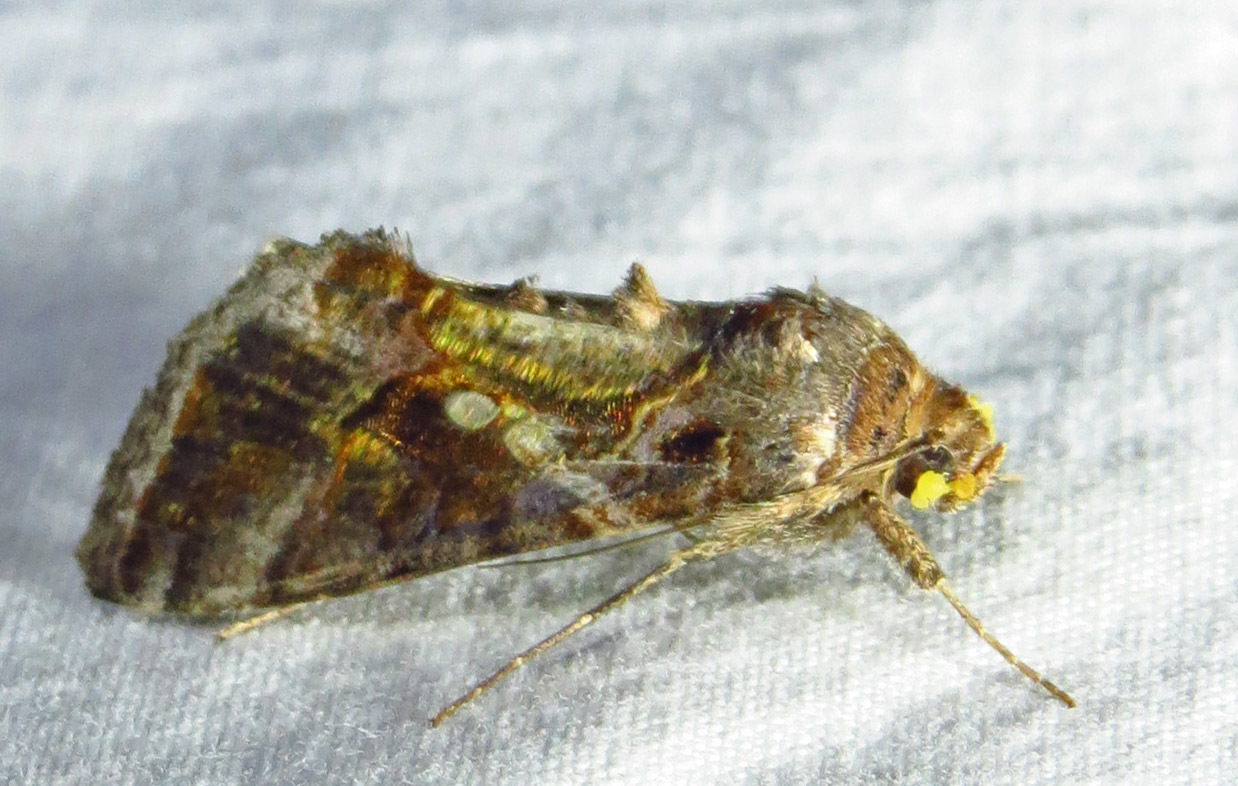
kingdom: Animalia
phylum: Arthropoda
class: Insecta
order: Lepidoptera
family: Noctuidae
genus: Chrysodeixis
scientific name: Chrysodeixis includens
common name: Cutworm moth
